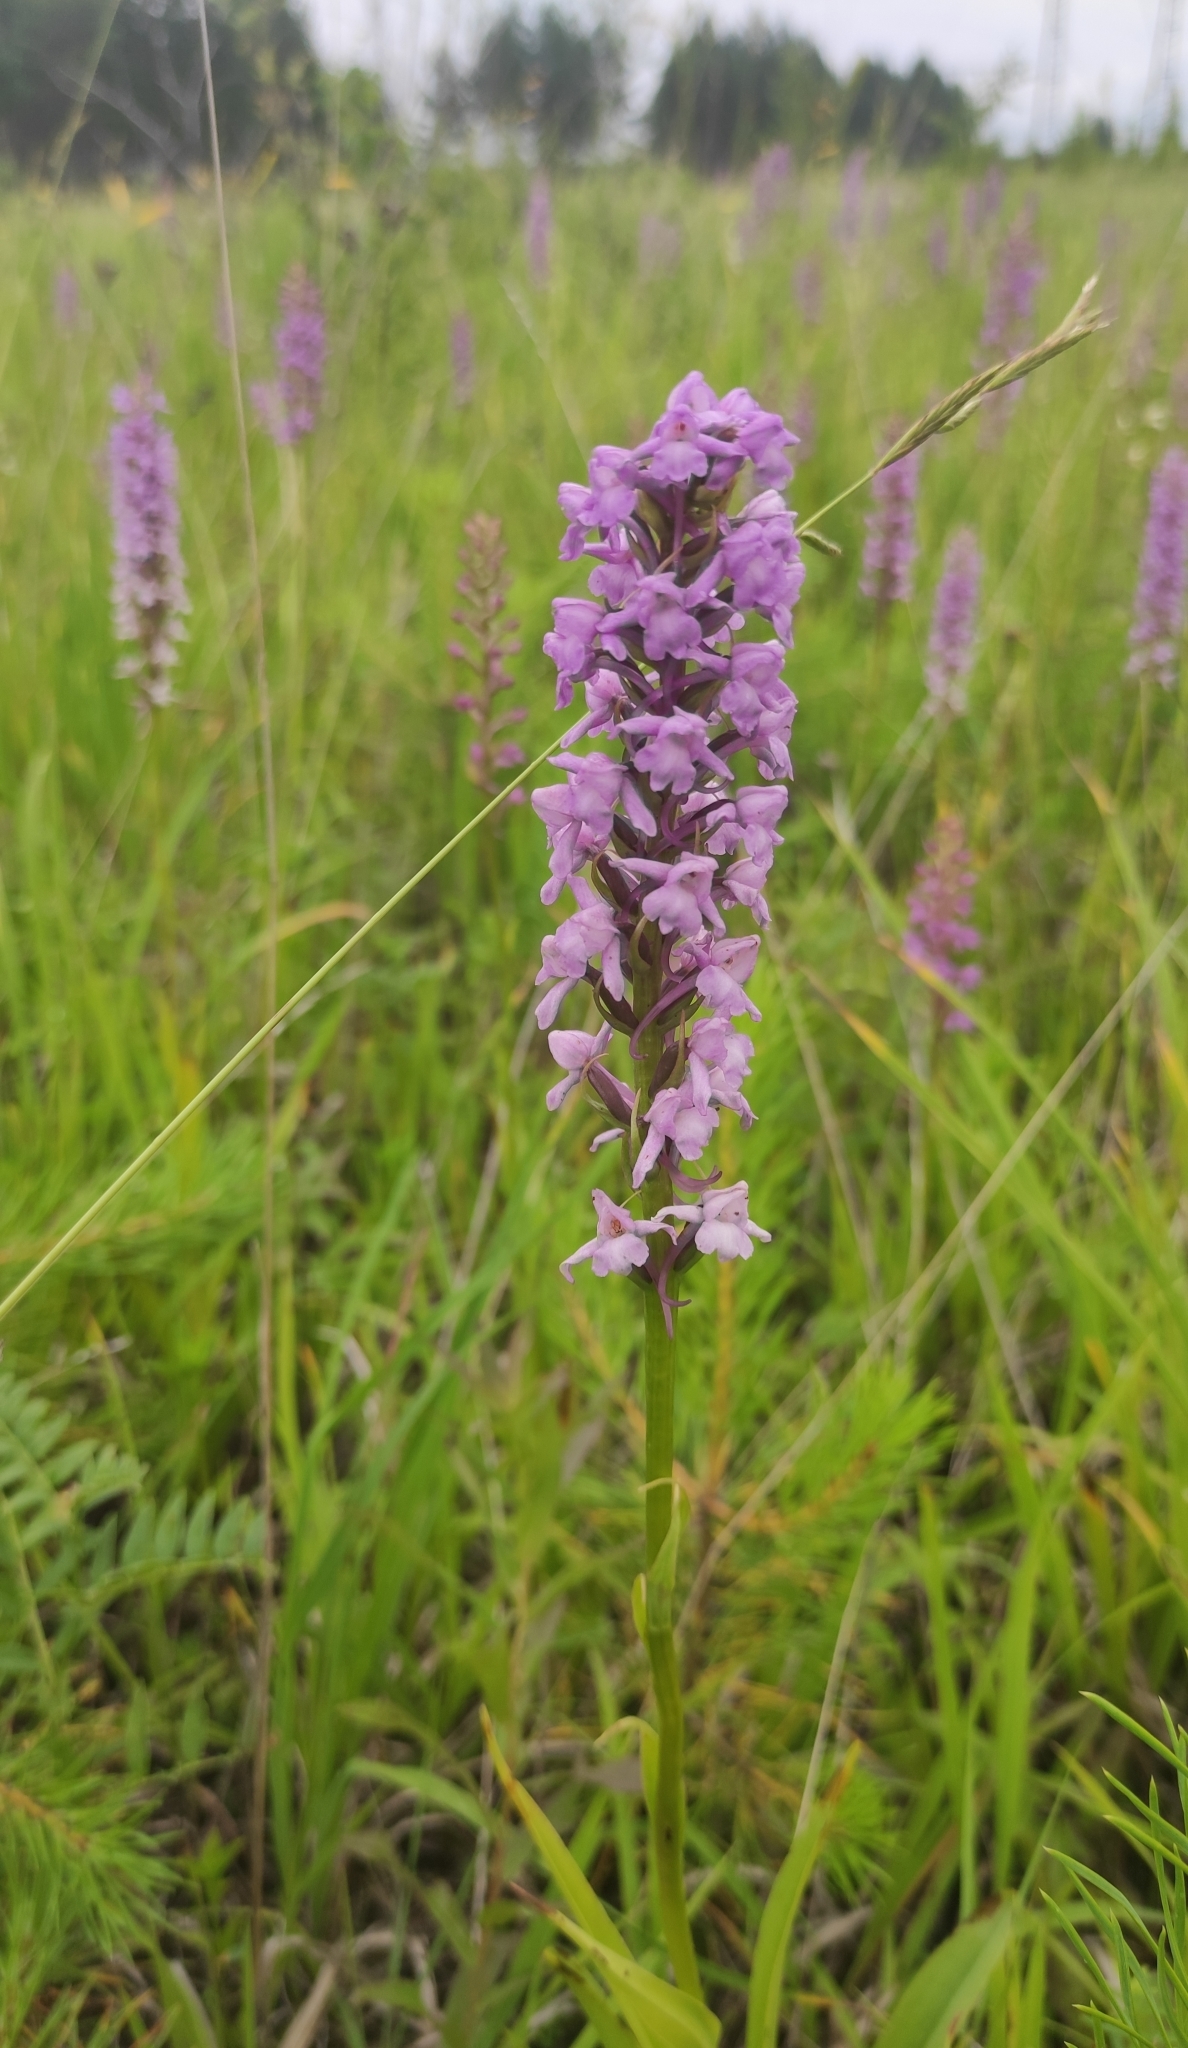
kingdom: Plantae
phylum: Tracheophyta
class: Liliopsida
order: Asparagales
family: Orchidaceae
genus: Gymnadenia
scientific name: Gymnadenia conopsea
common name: Fragrant orchid
